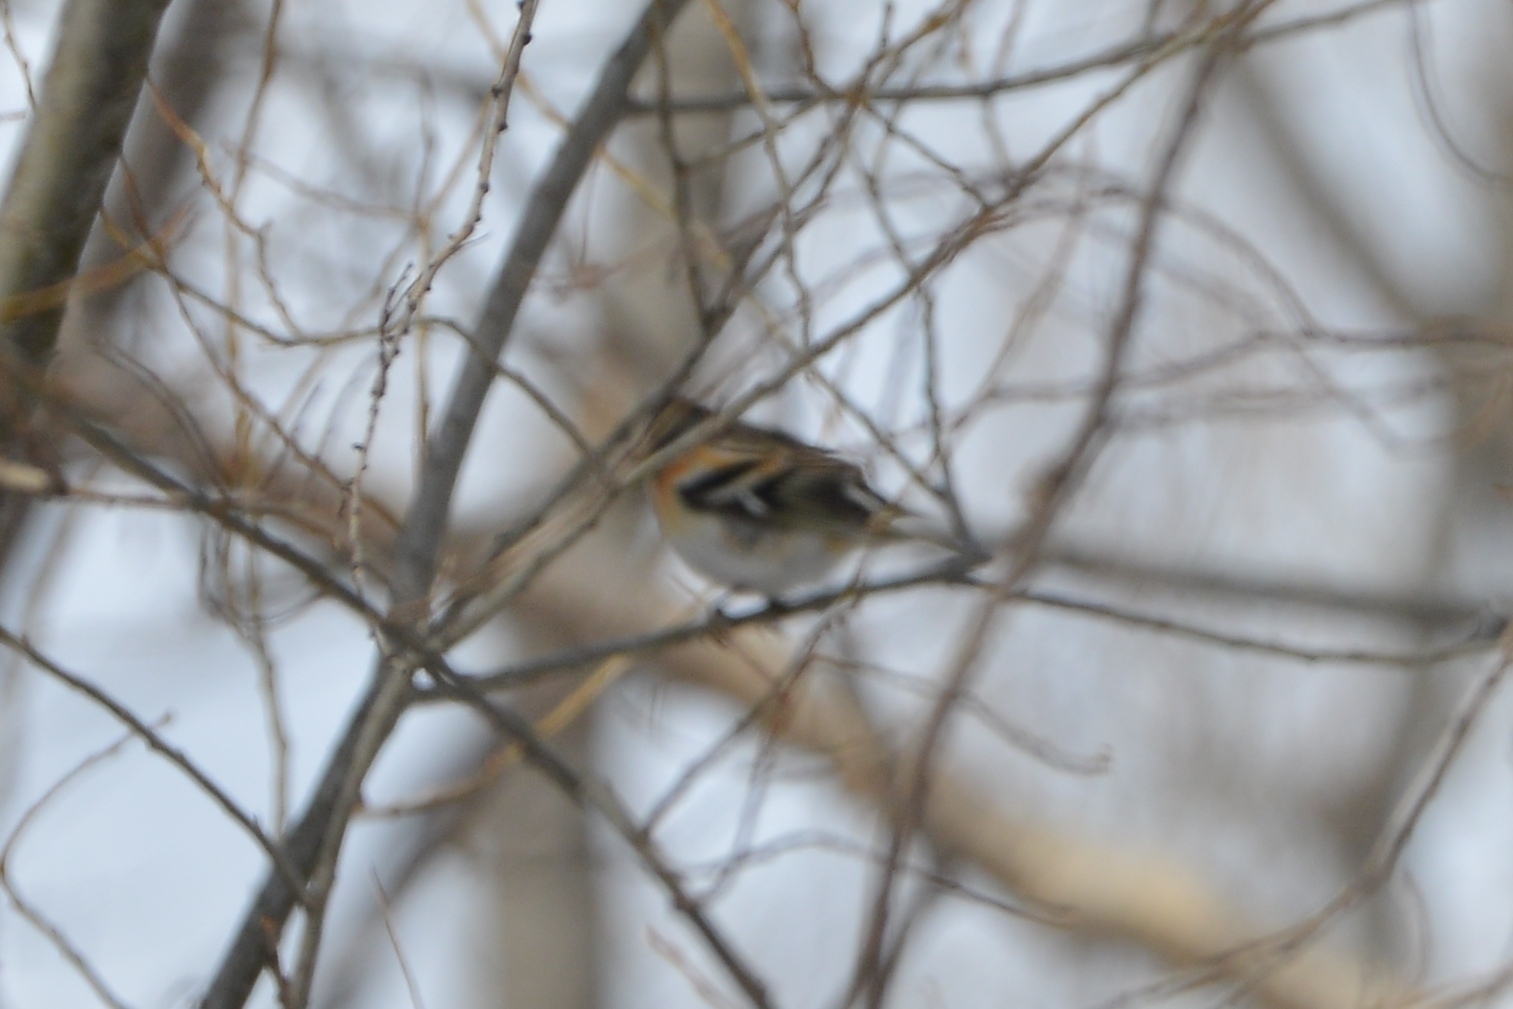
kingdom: Animalia
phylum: Chordata
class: Aves
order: Passeriformes
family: Fringillidae
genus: Fringilla
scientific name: Fringilla montifringilla
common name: Brambling
